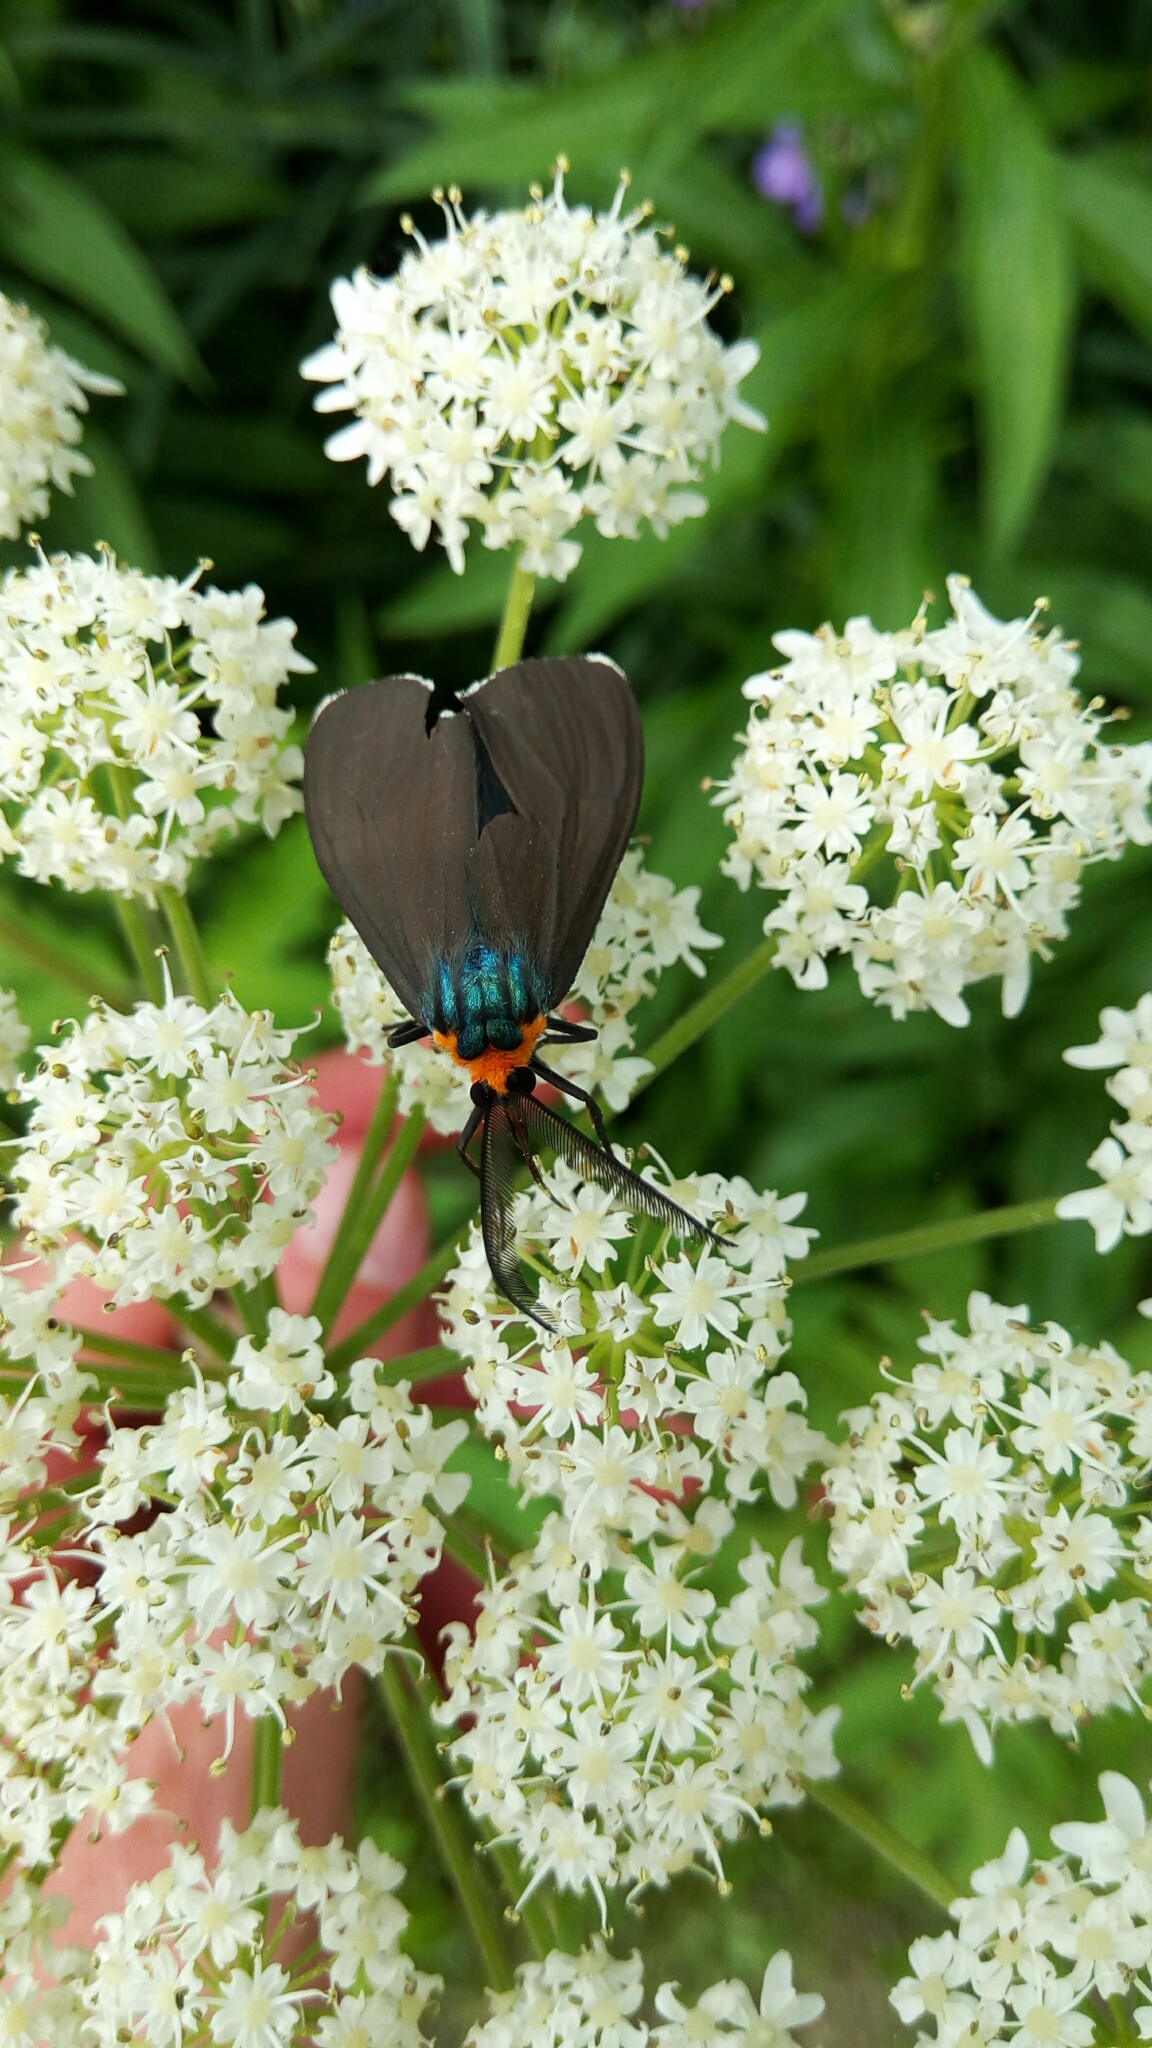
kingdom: Animalia
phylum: Arthropoda
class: Insecta
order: Lepidoptera
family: Erebidae
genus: Ctenucha
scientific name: Ctenucha virginica
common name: Virginia ctenucha moth
